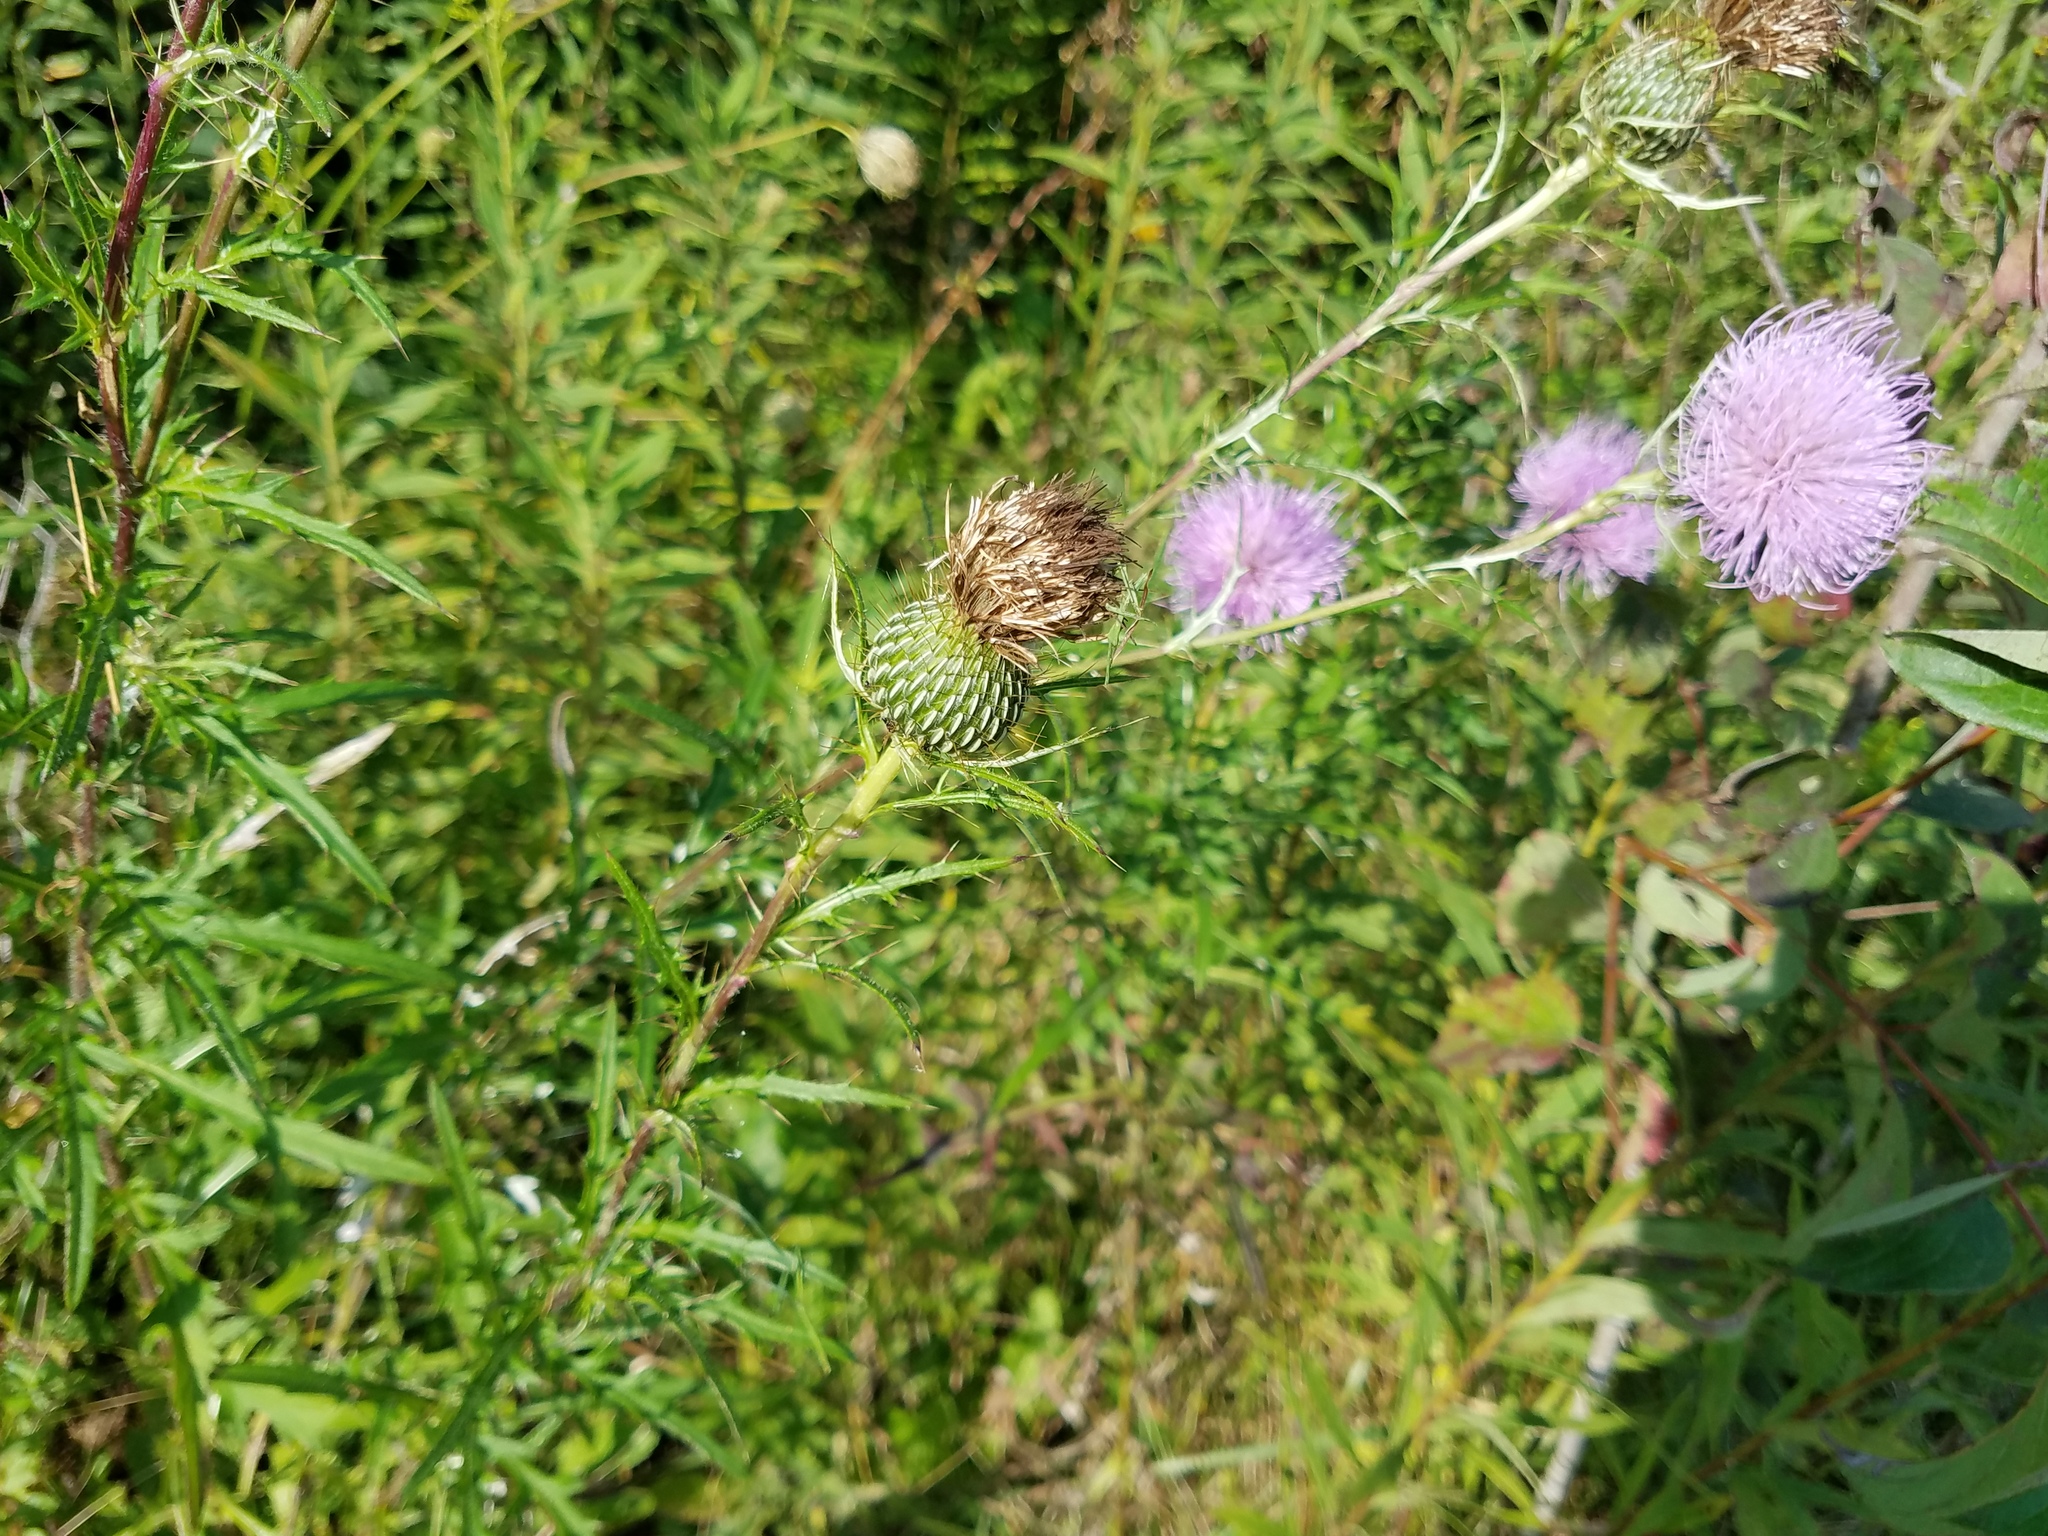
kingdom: Plantae
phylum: Tracheophyta
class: Magnoliopsida
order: Asterales
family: Asteraceae
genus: Cirsium
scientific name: Cirsium discolor
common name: Field thistle
